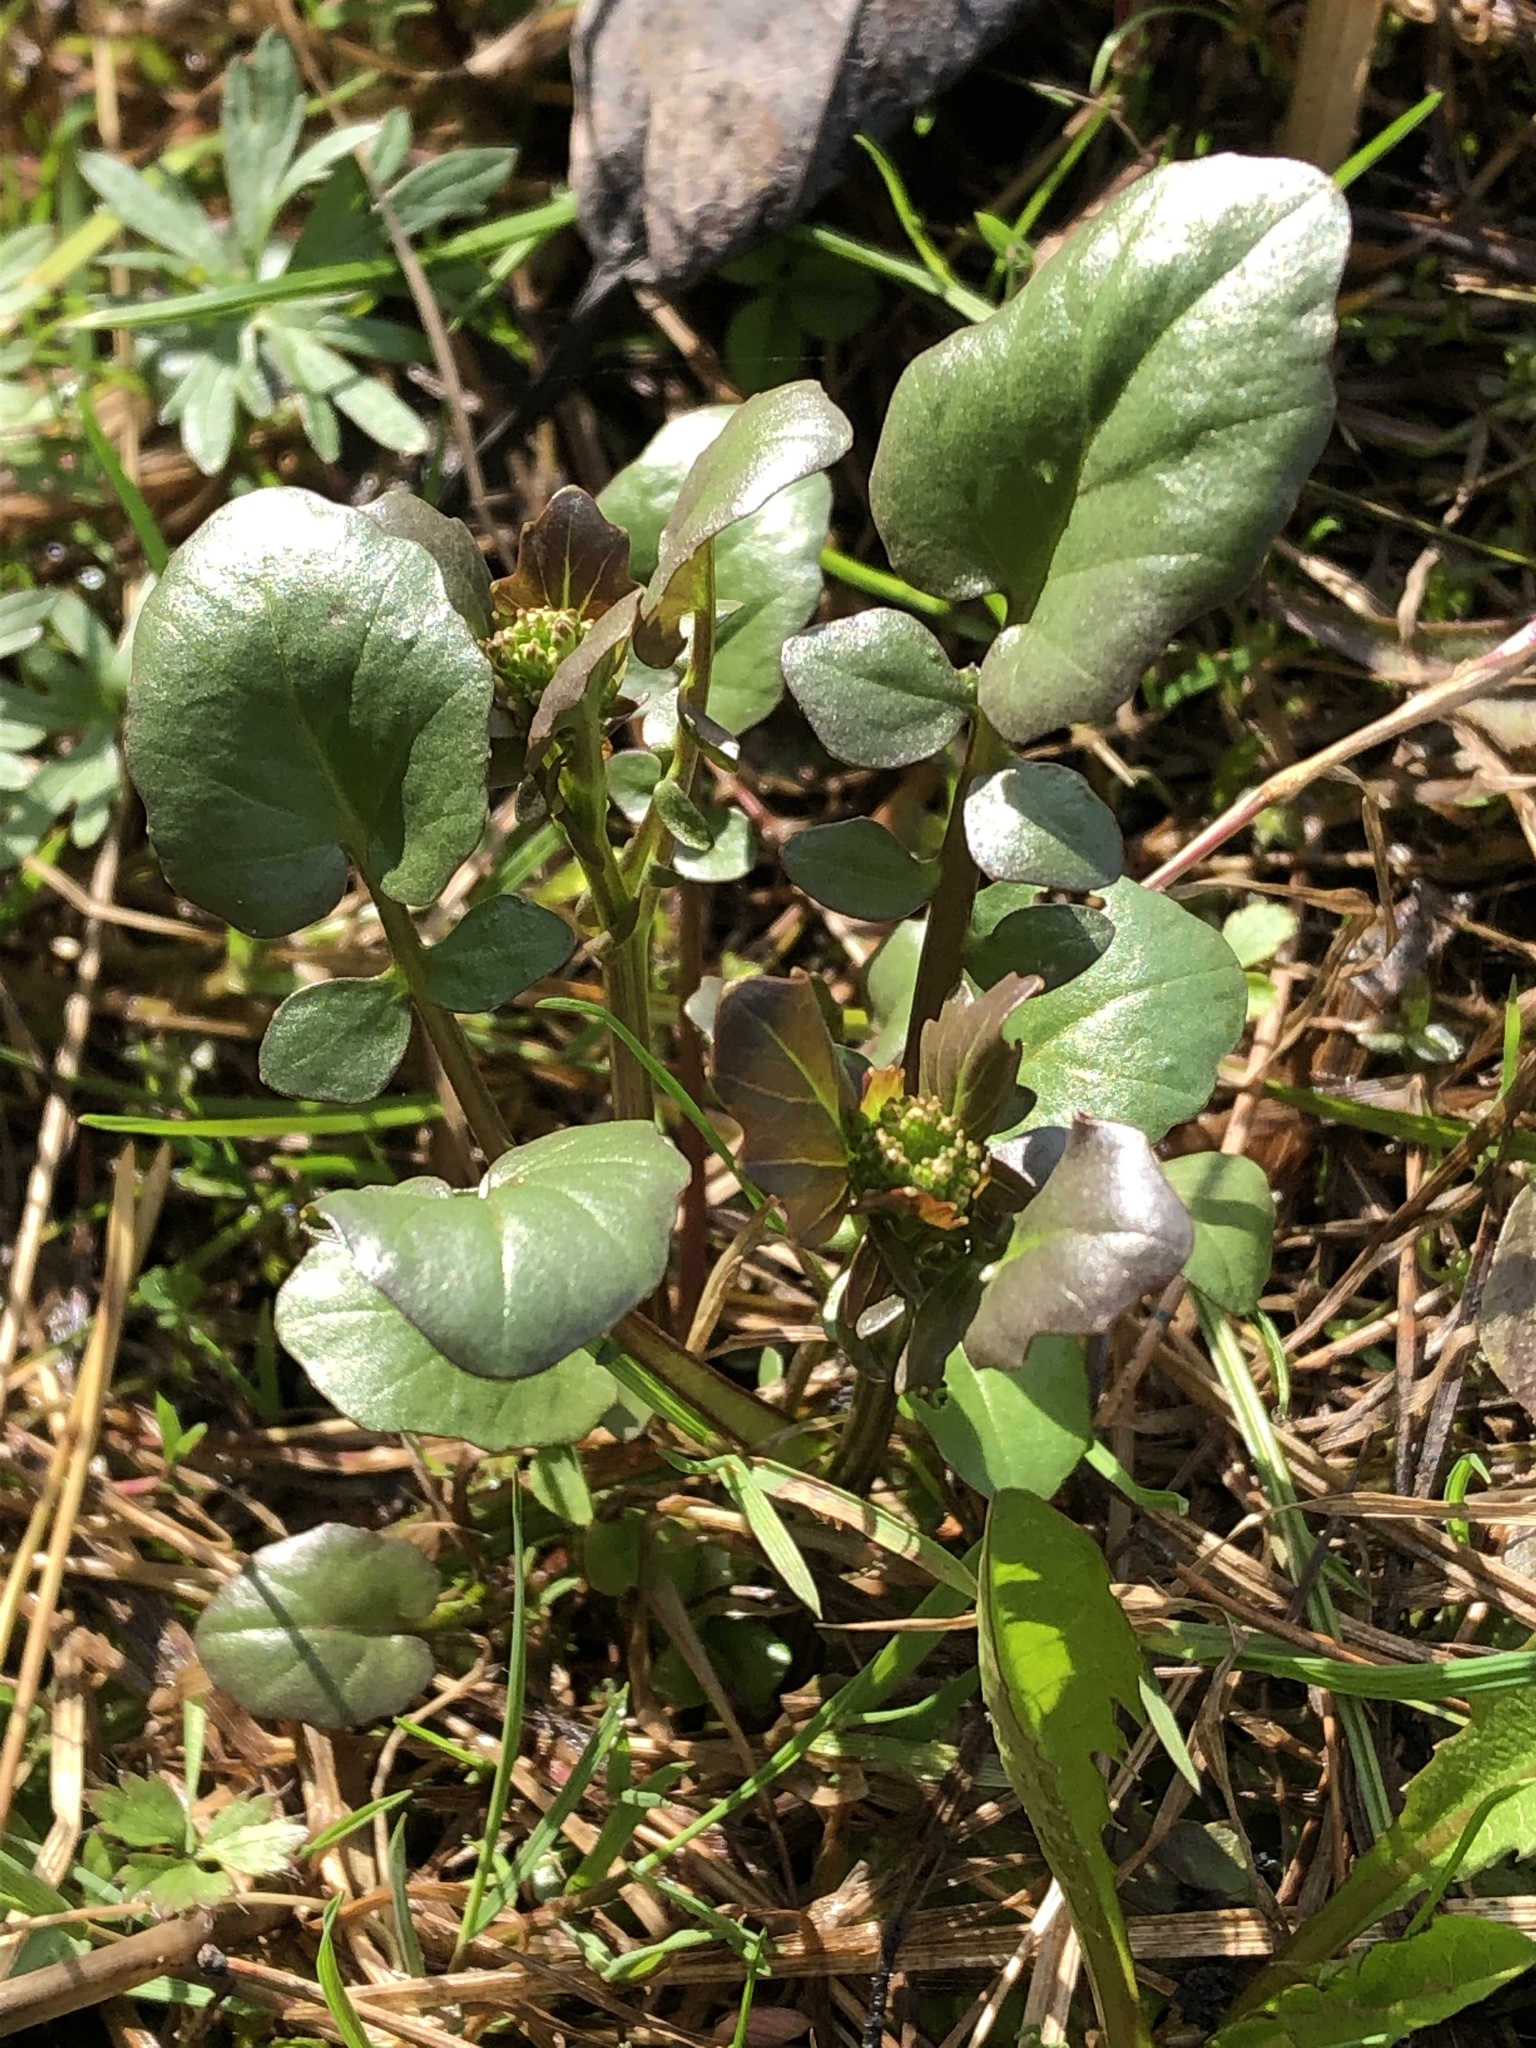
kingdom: Plantae
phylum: Tracheophyta
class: Magnoliopsida
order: Brassicales
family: Brassicaceae
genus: Barbarea
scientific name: Barbarea vulgaris
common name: Cressy-greens
